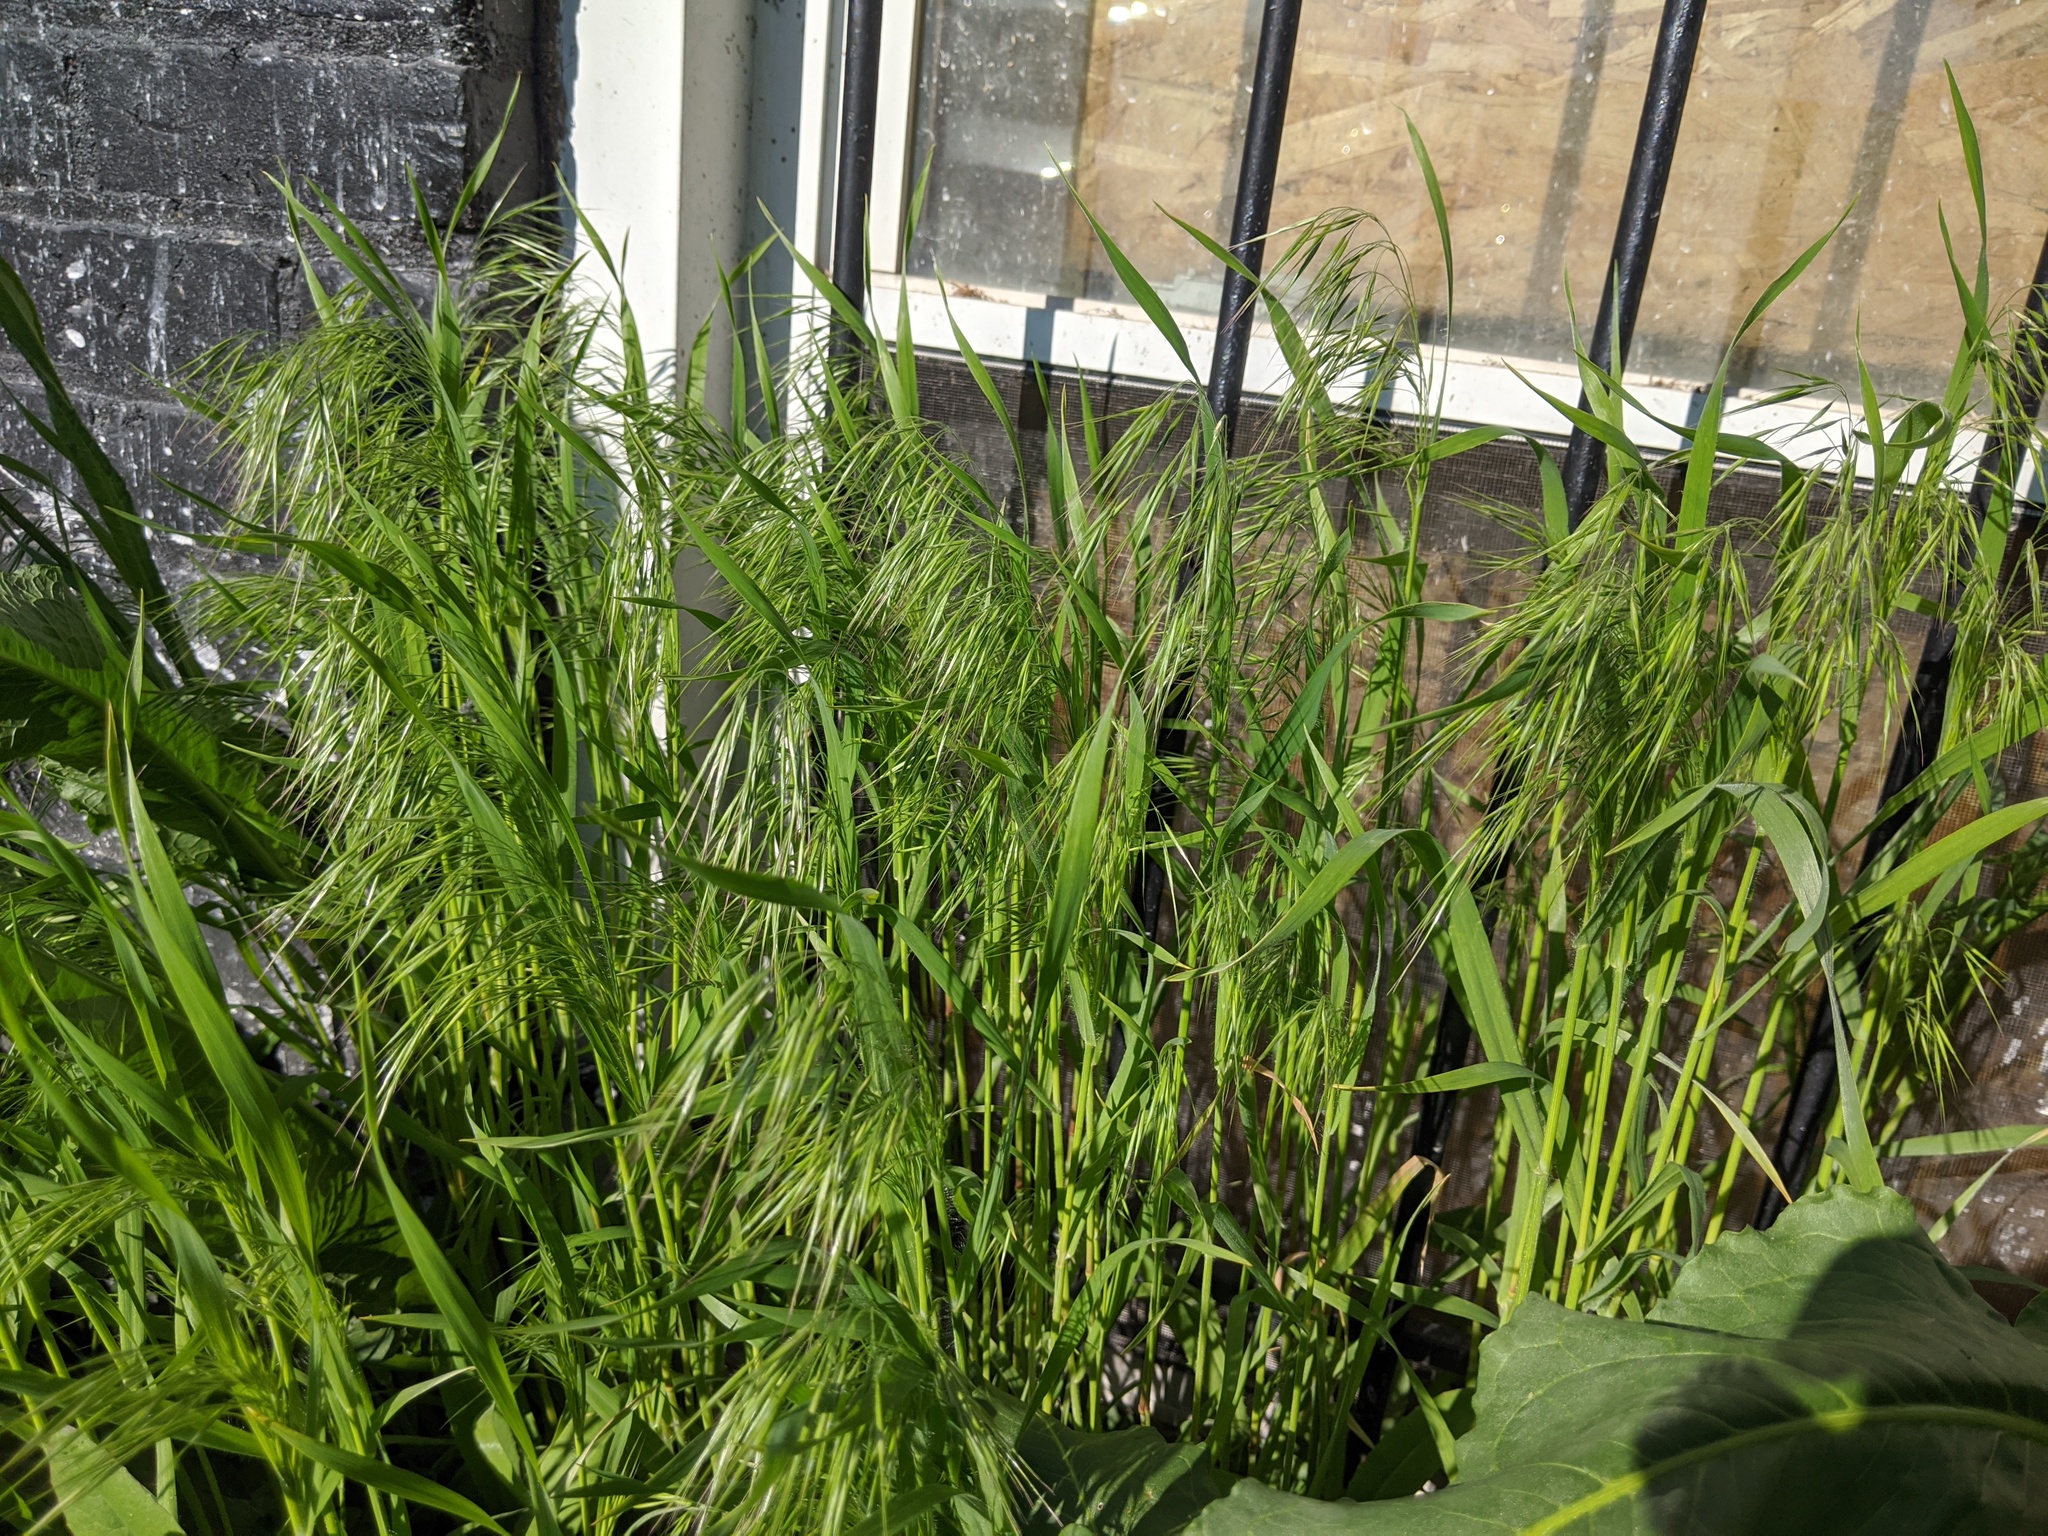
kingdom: Plantae
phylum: Tracheophyta
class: Liliopsida
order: Poales
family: Poaceae
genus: Bromus
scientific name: Bromus tectorum
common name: Cheatgrass
